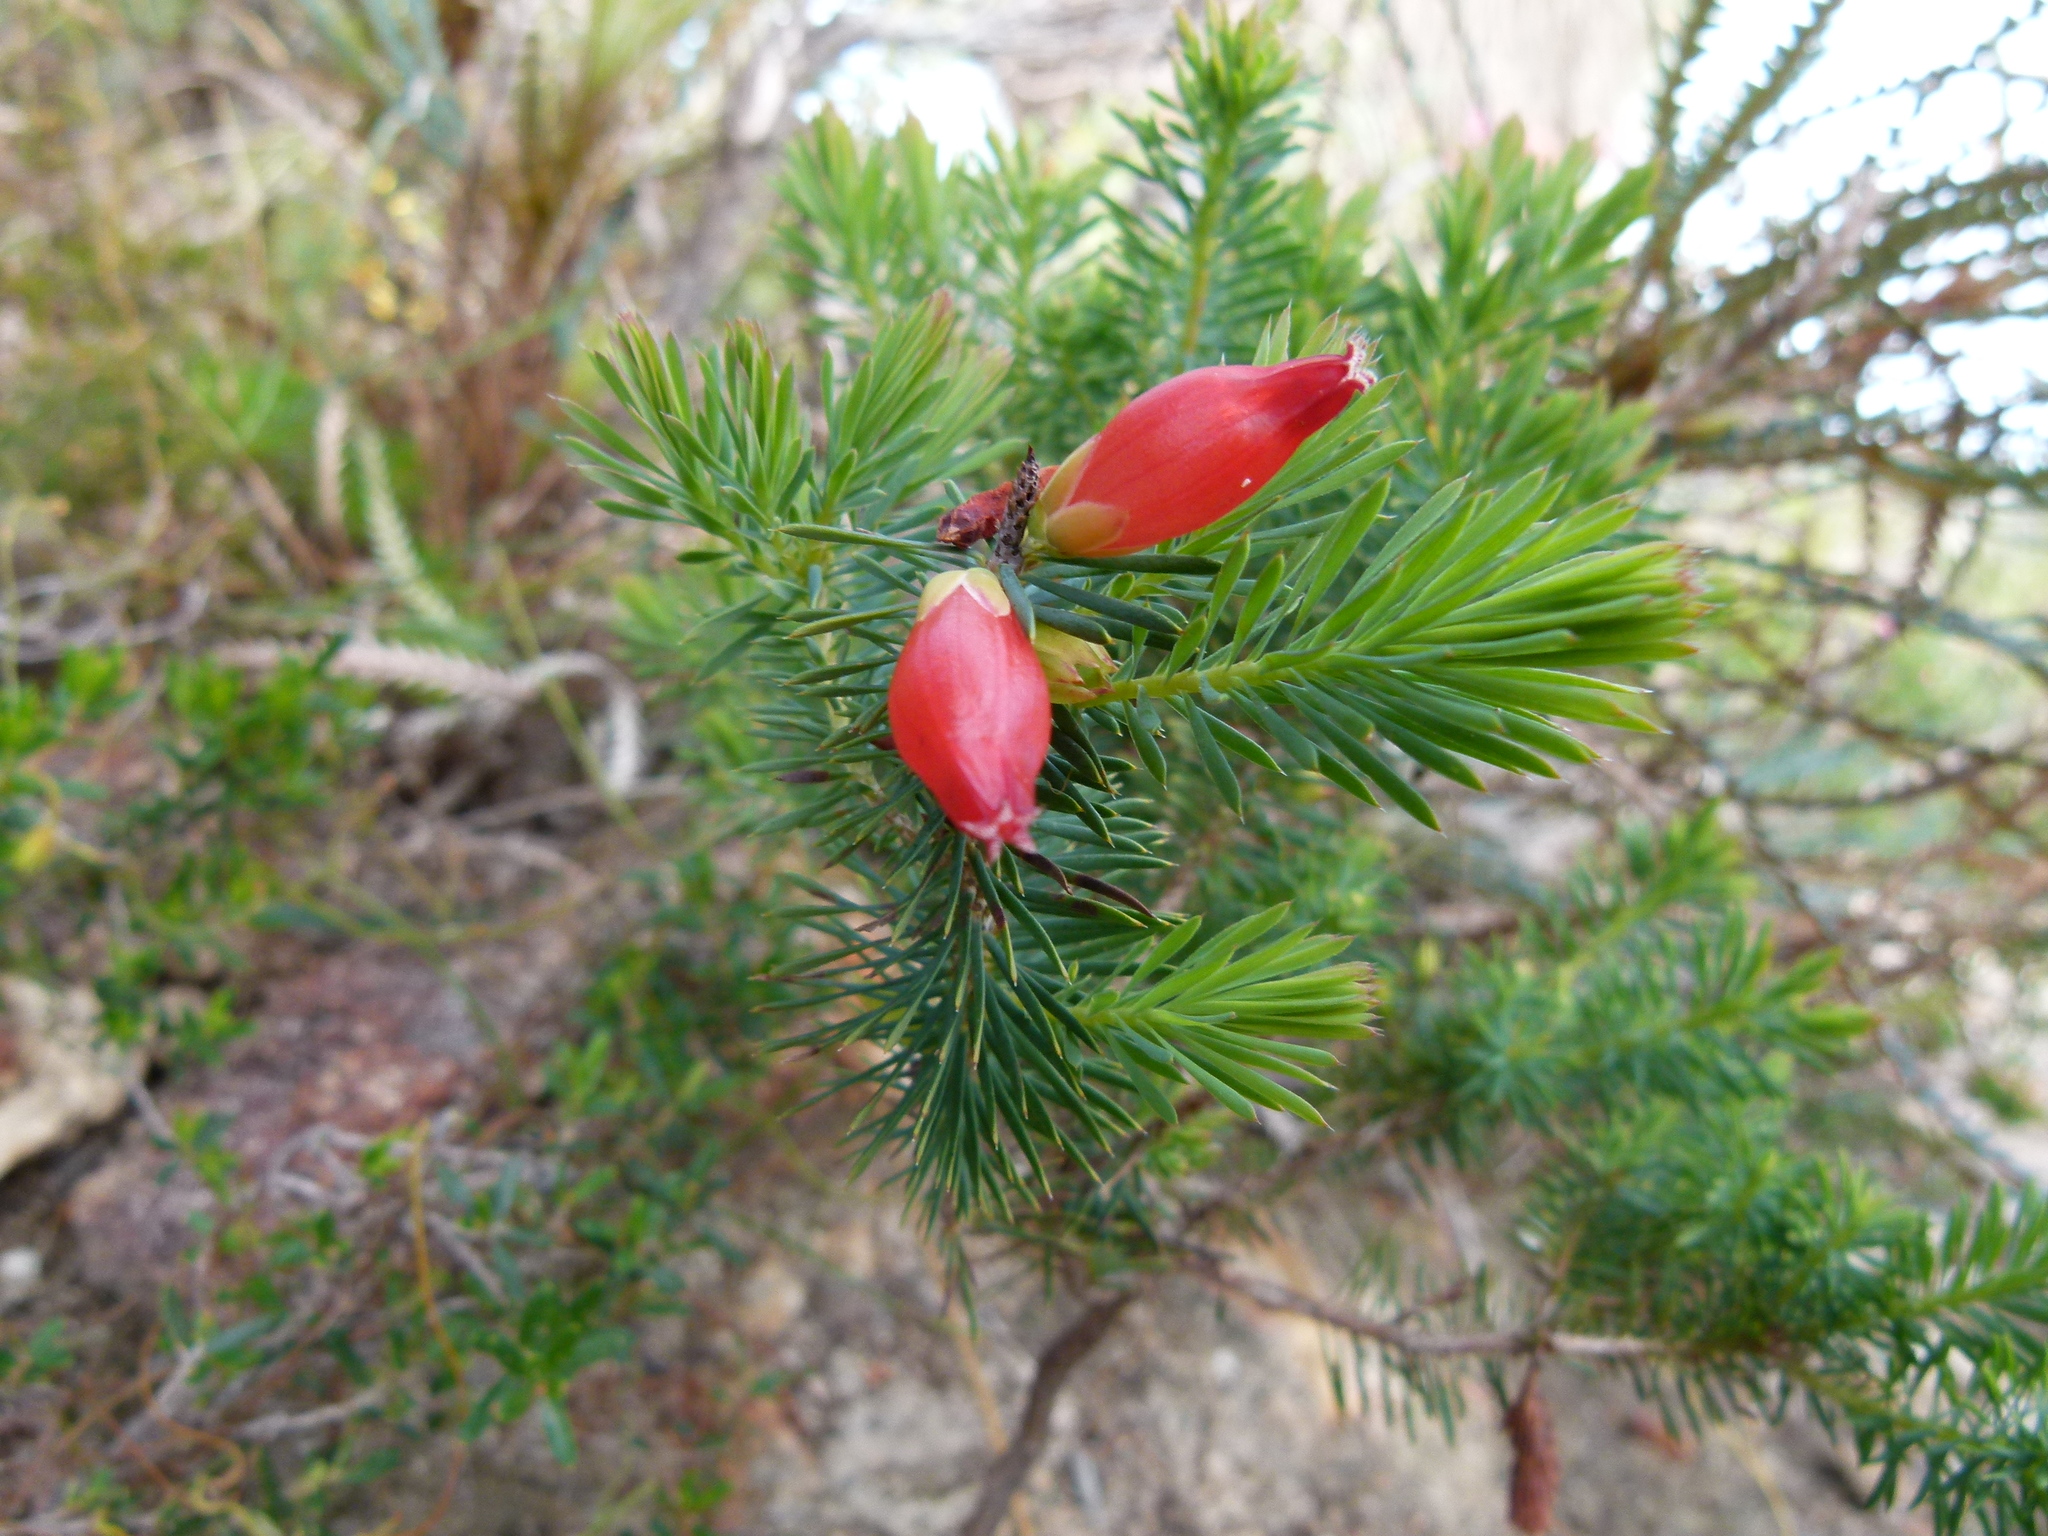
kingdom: Plantae
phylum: Tracheophyta
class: Magnoliopsida
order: Ericales
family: Ericaceae
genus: Styphelia
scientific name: Styphelia tortifolia
